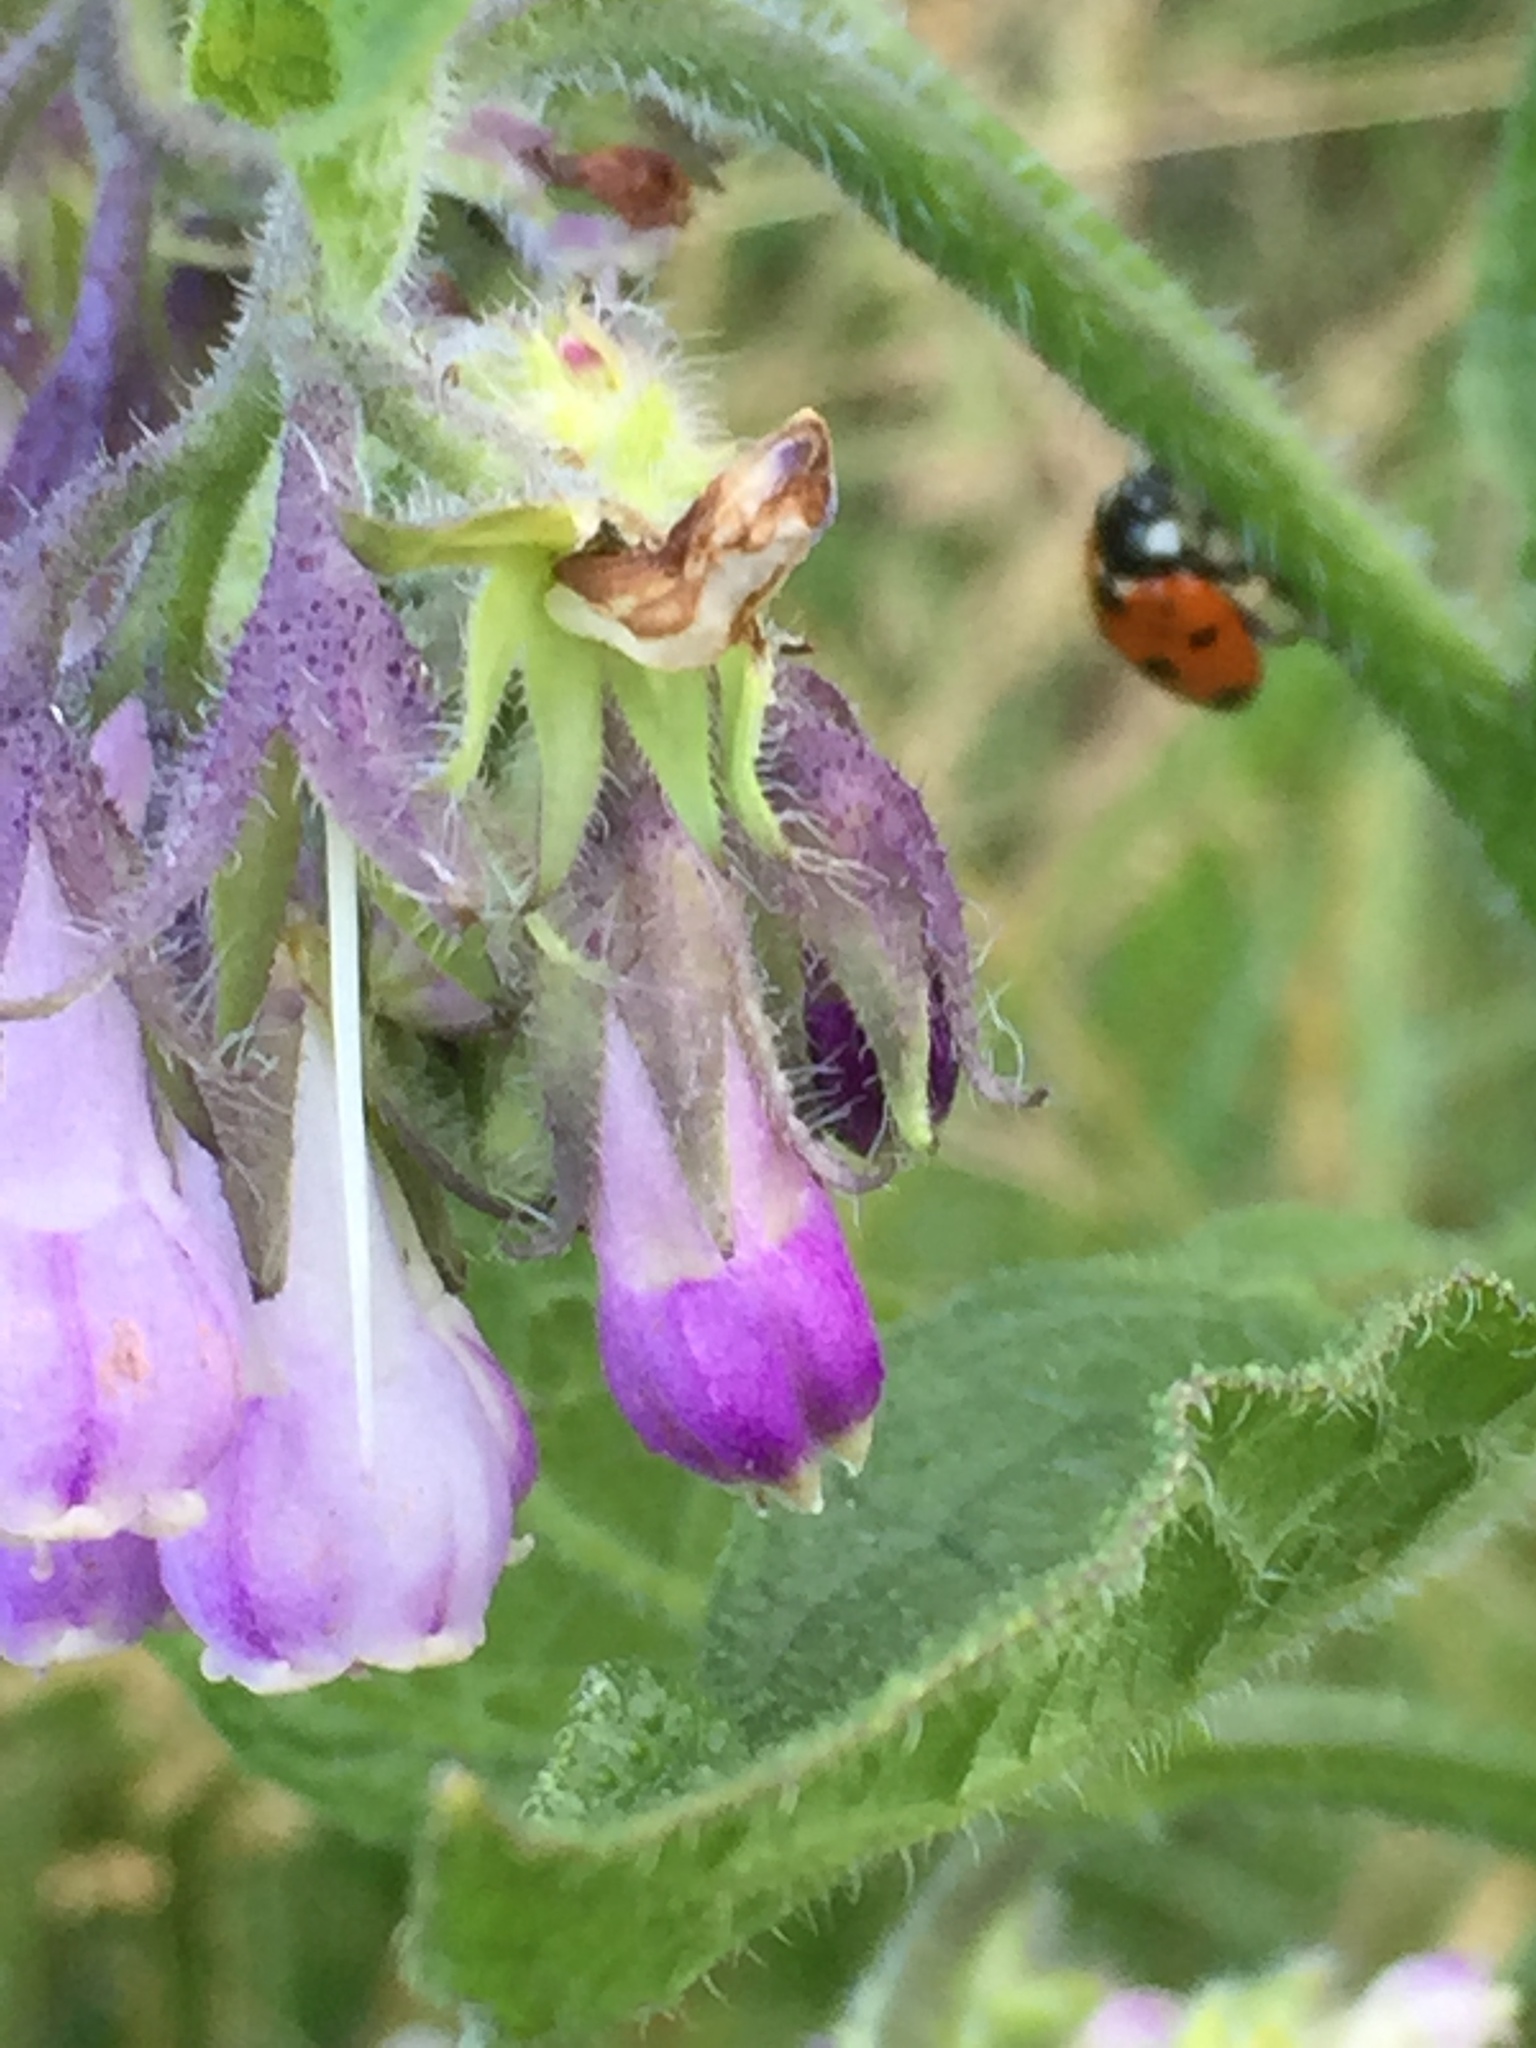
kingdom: Animalia
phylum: Arthropoda
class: Insecta
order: Coleoptera
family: Coccinellidae
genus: Coccinella
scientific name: Coccinella septempunctata
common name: Sevenspotted lady beetle
